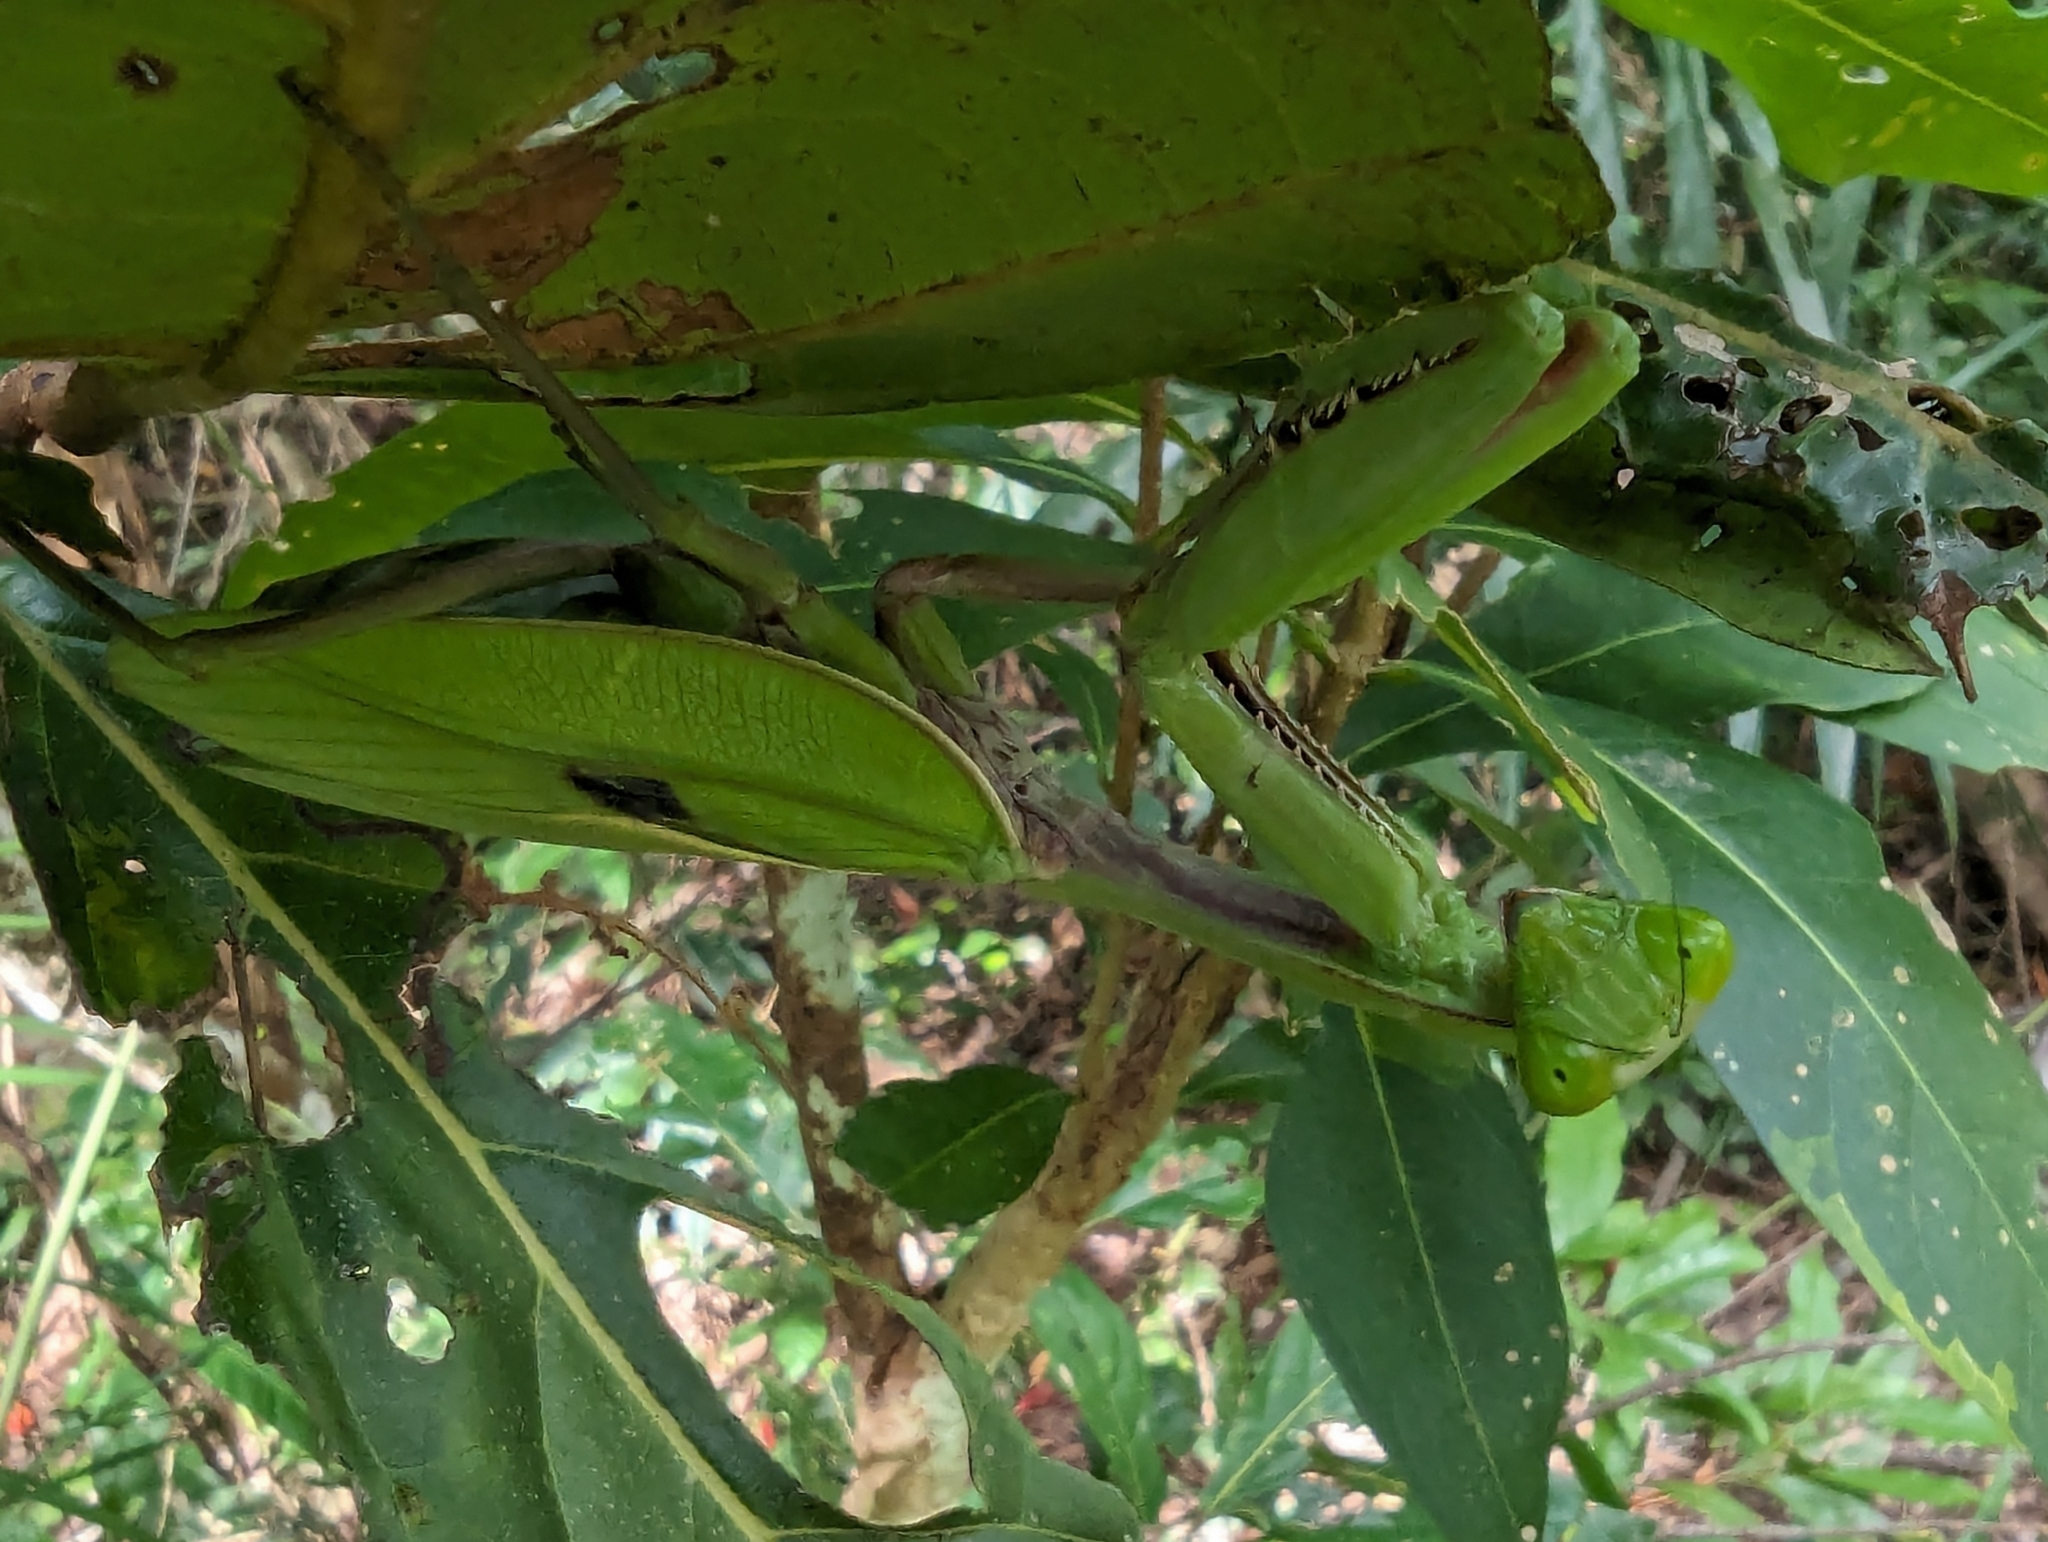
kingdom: Animalia
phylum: Arthropoda
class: Insecta
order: Mantodea
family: Mantidae
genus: Hierodula
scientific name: Hierodula majuscula
